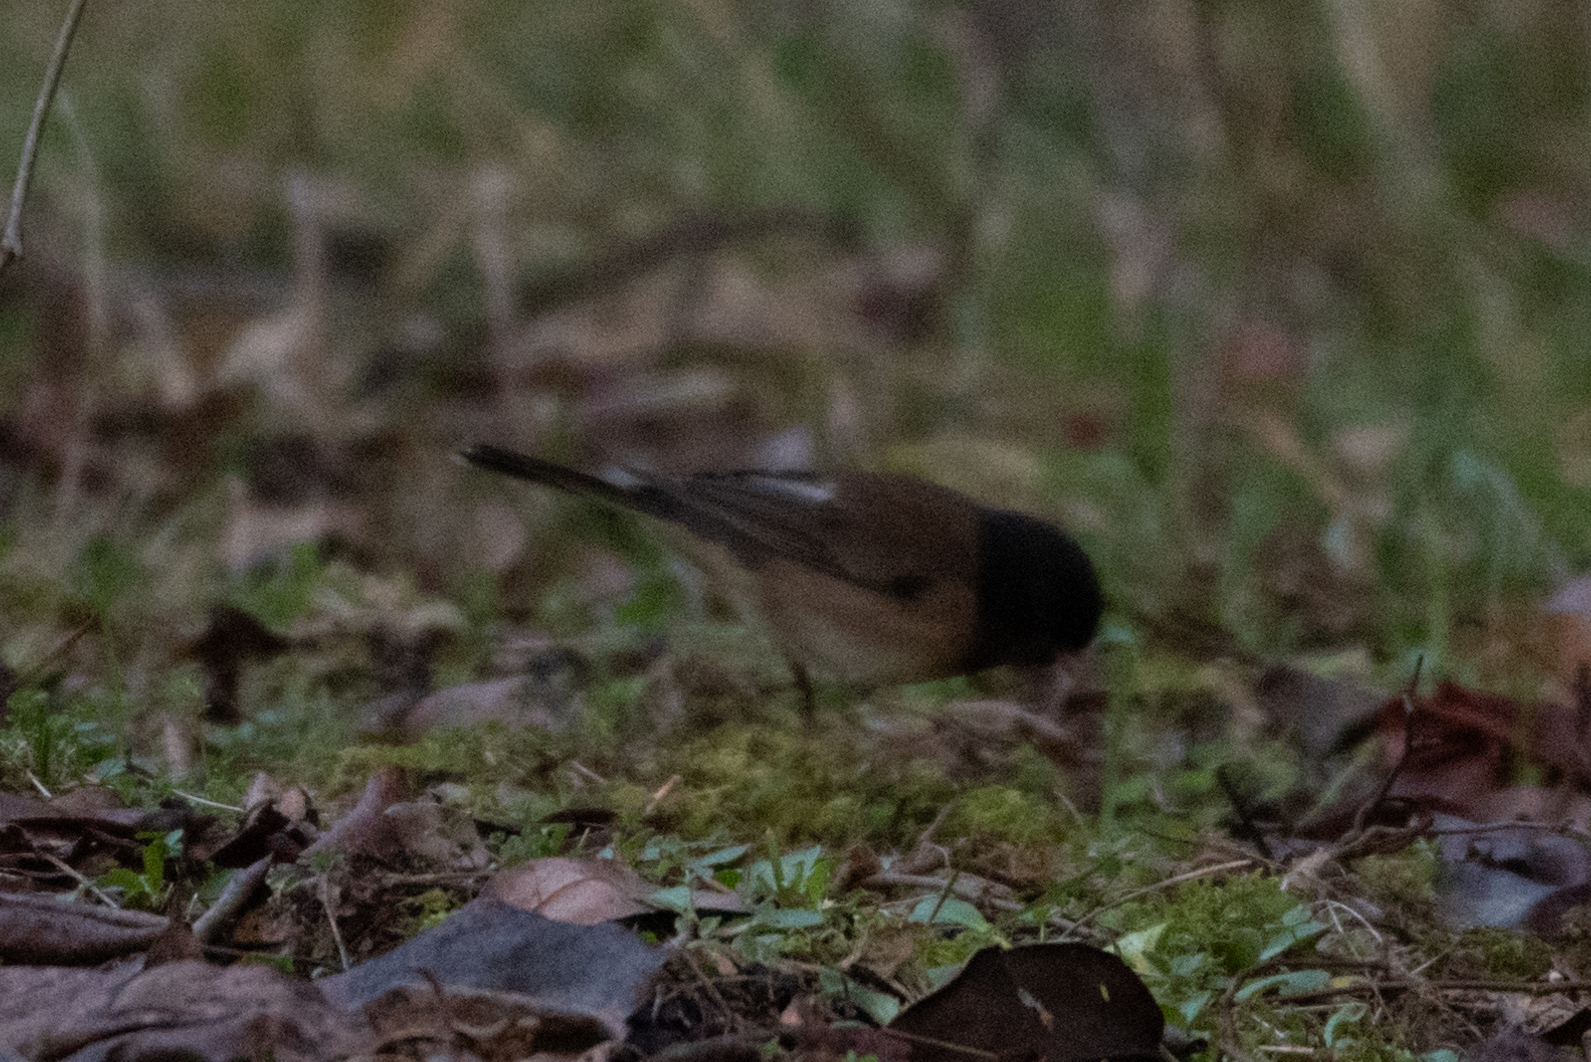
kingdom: Animalia
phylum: Chordata
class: Aves
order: Passeriformes
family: Passerellidae
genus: Junco
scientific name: Junco hyemalis
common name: Dark-eyed junco
